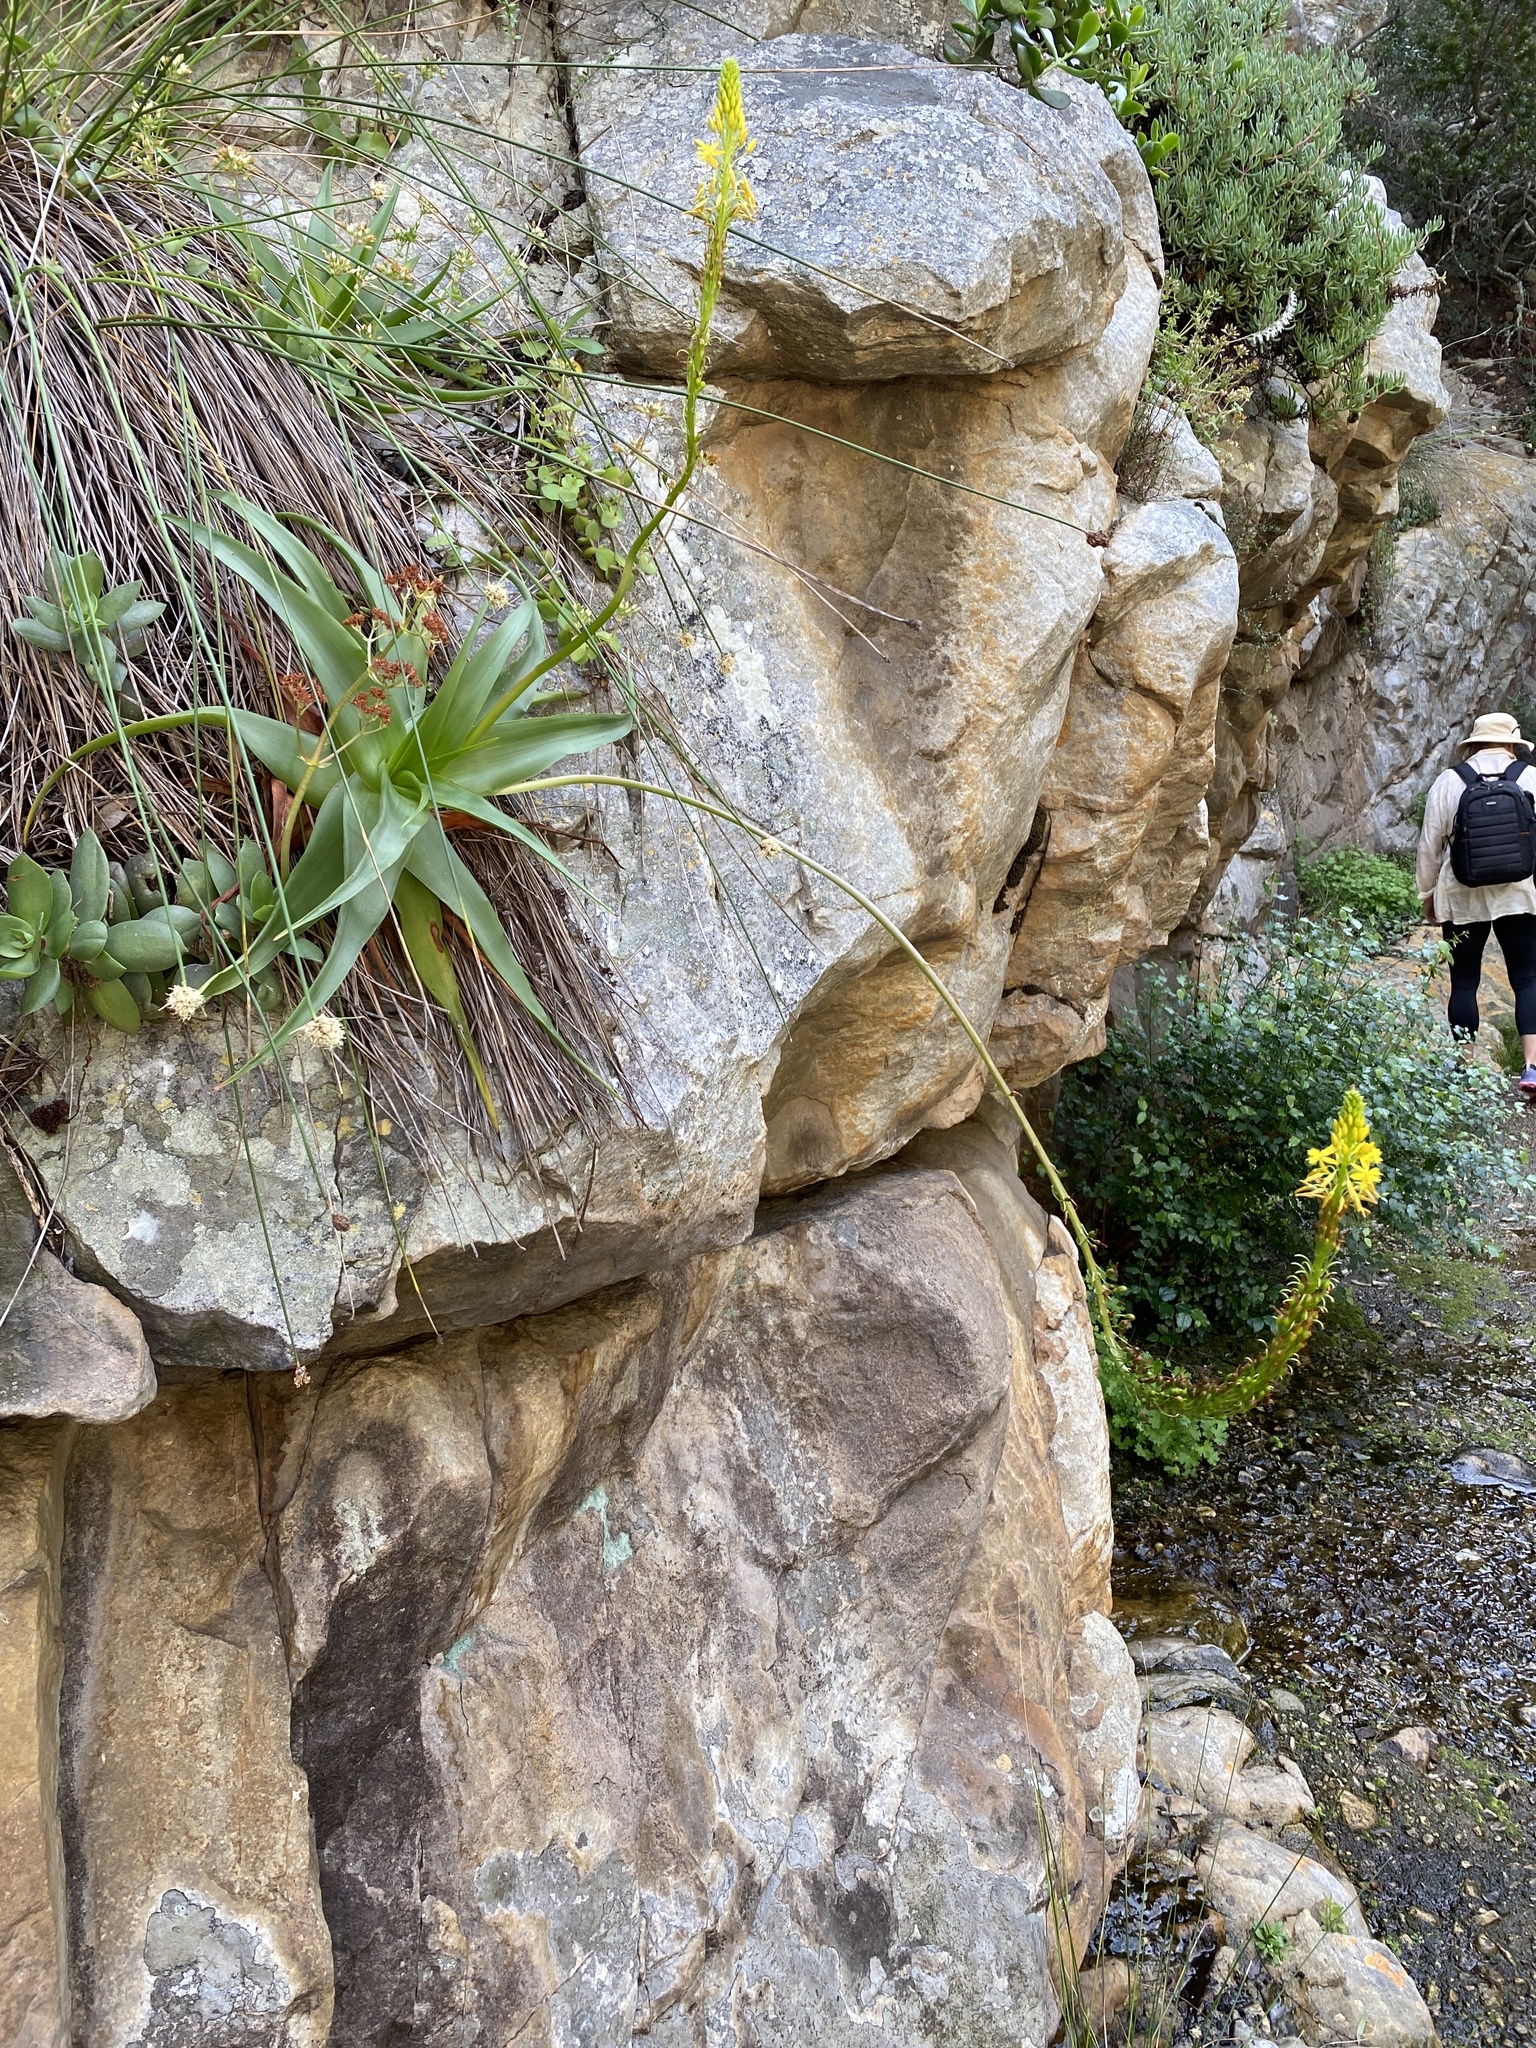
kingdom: Plantae
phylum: Tracheophyta
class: Liliopsida
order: Asparagales
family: Asphodelaceae
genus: Bulbine
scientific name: Bulbine latifolia
